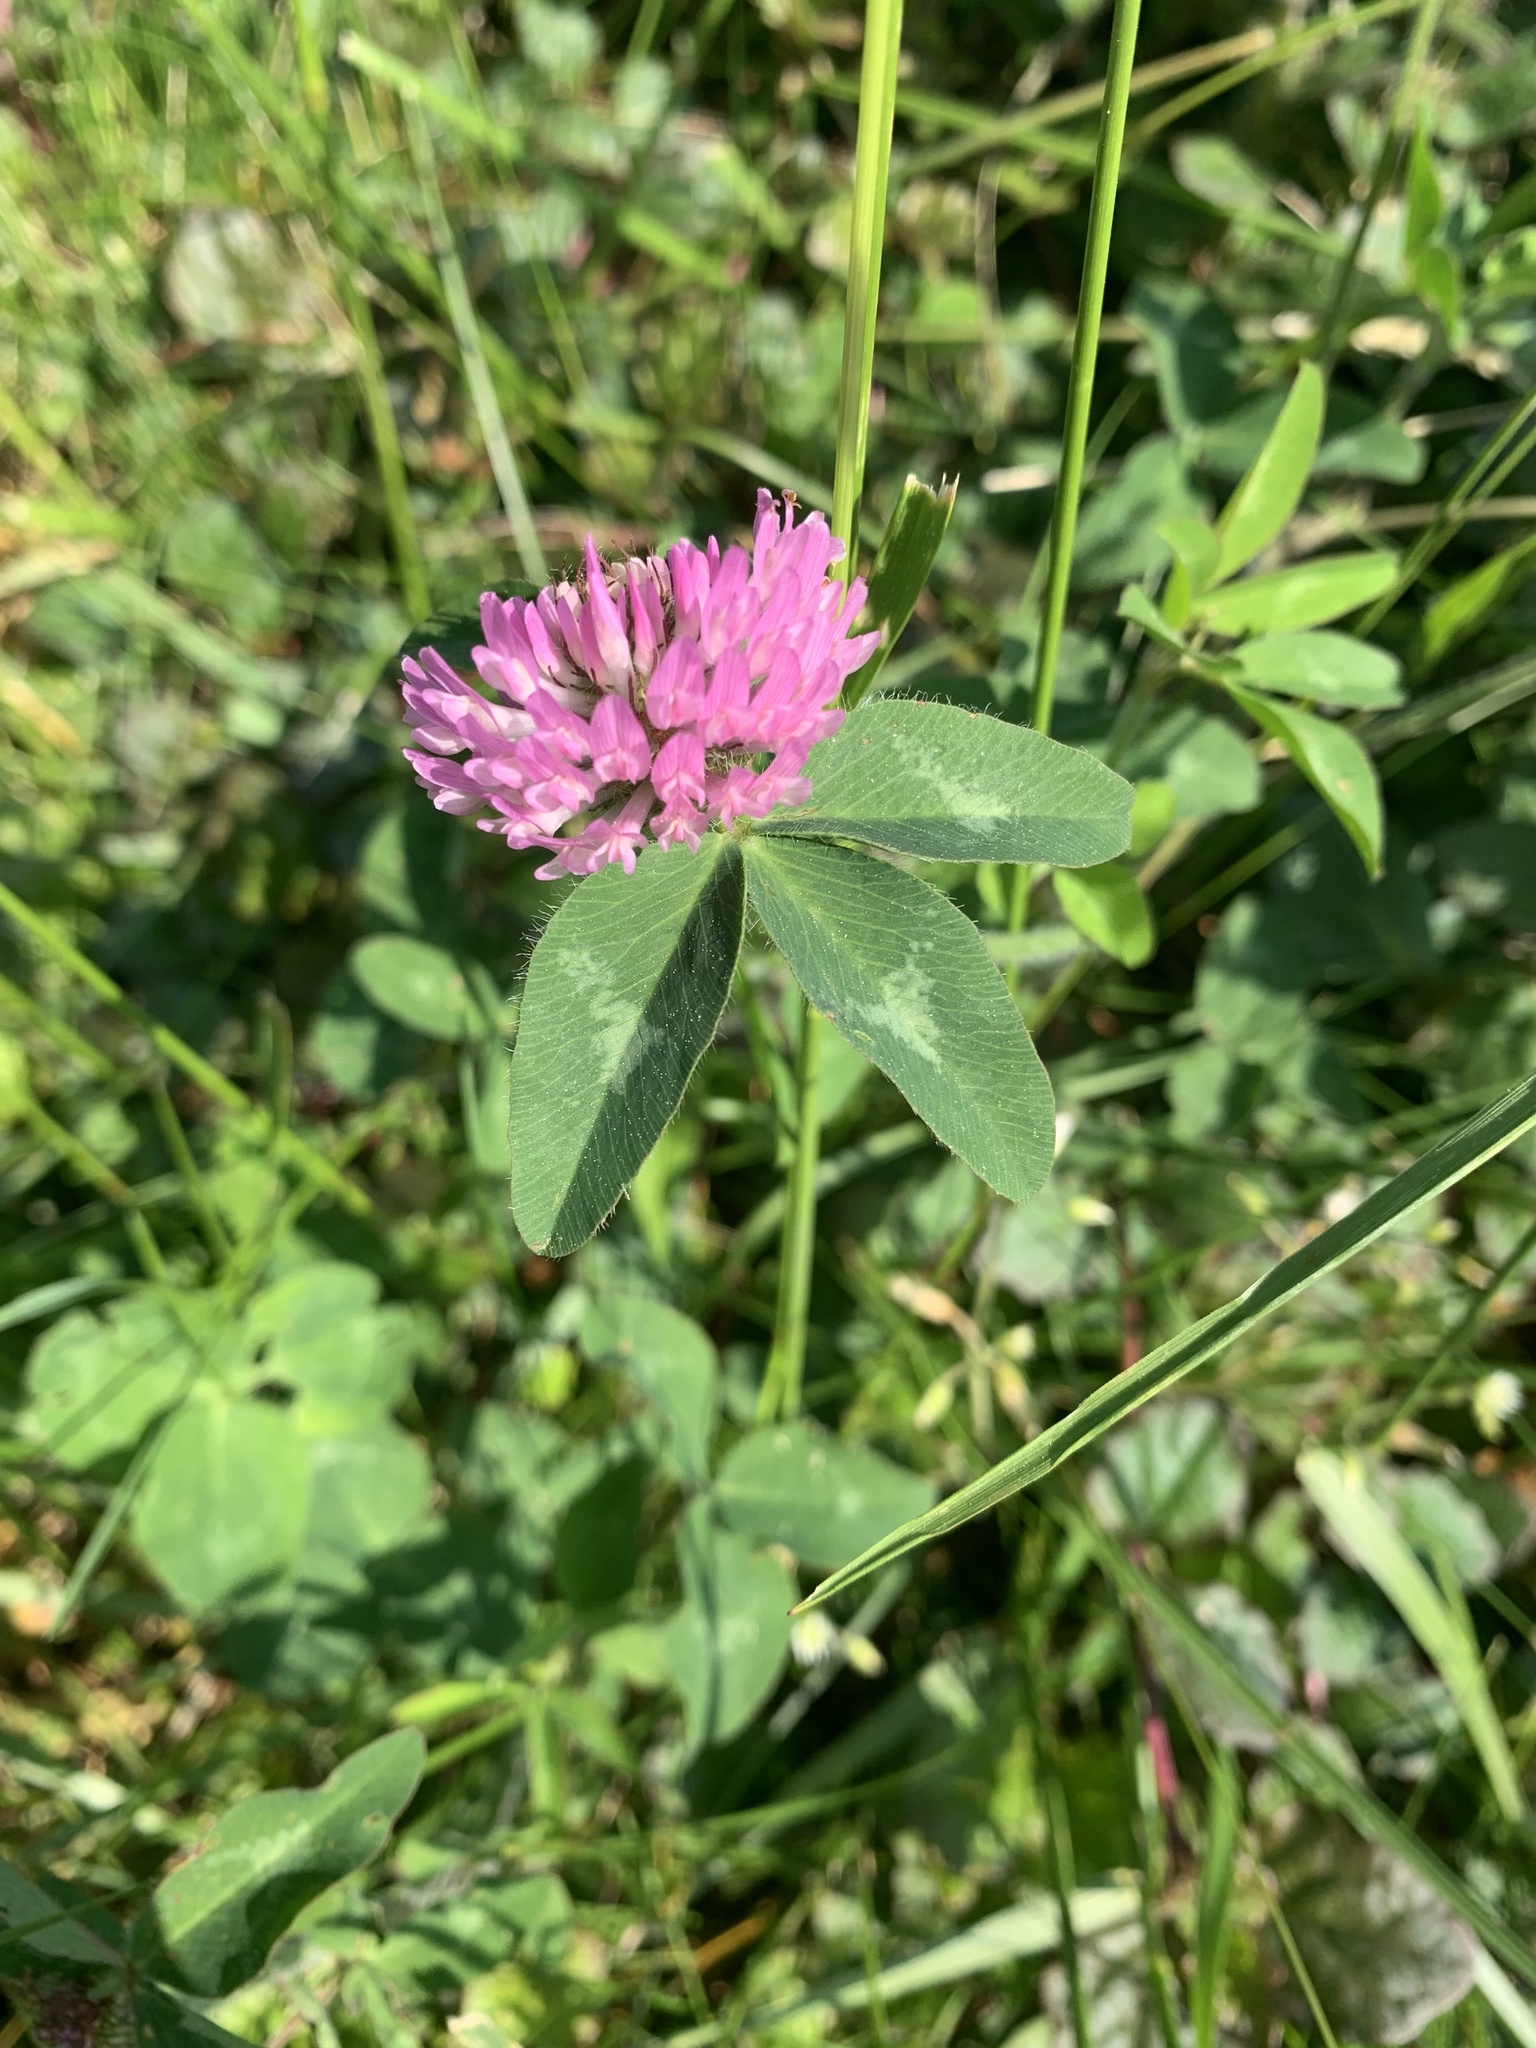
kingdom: Plantae
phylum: Tracheophyta
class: Magnoliopsida
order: Fabales
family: Fabaceae
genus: Trifolium
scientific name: Trifolium pratense
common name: Red clover
